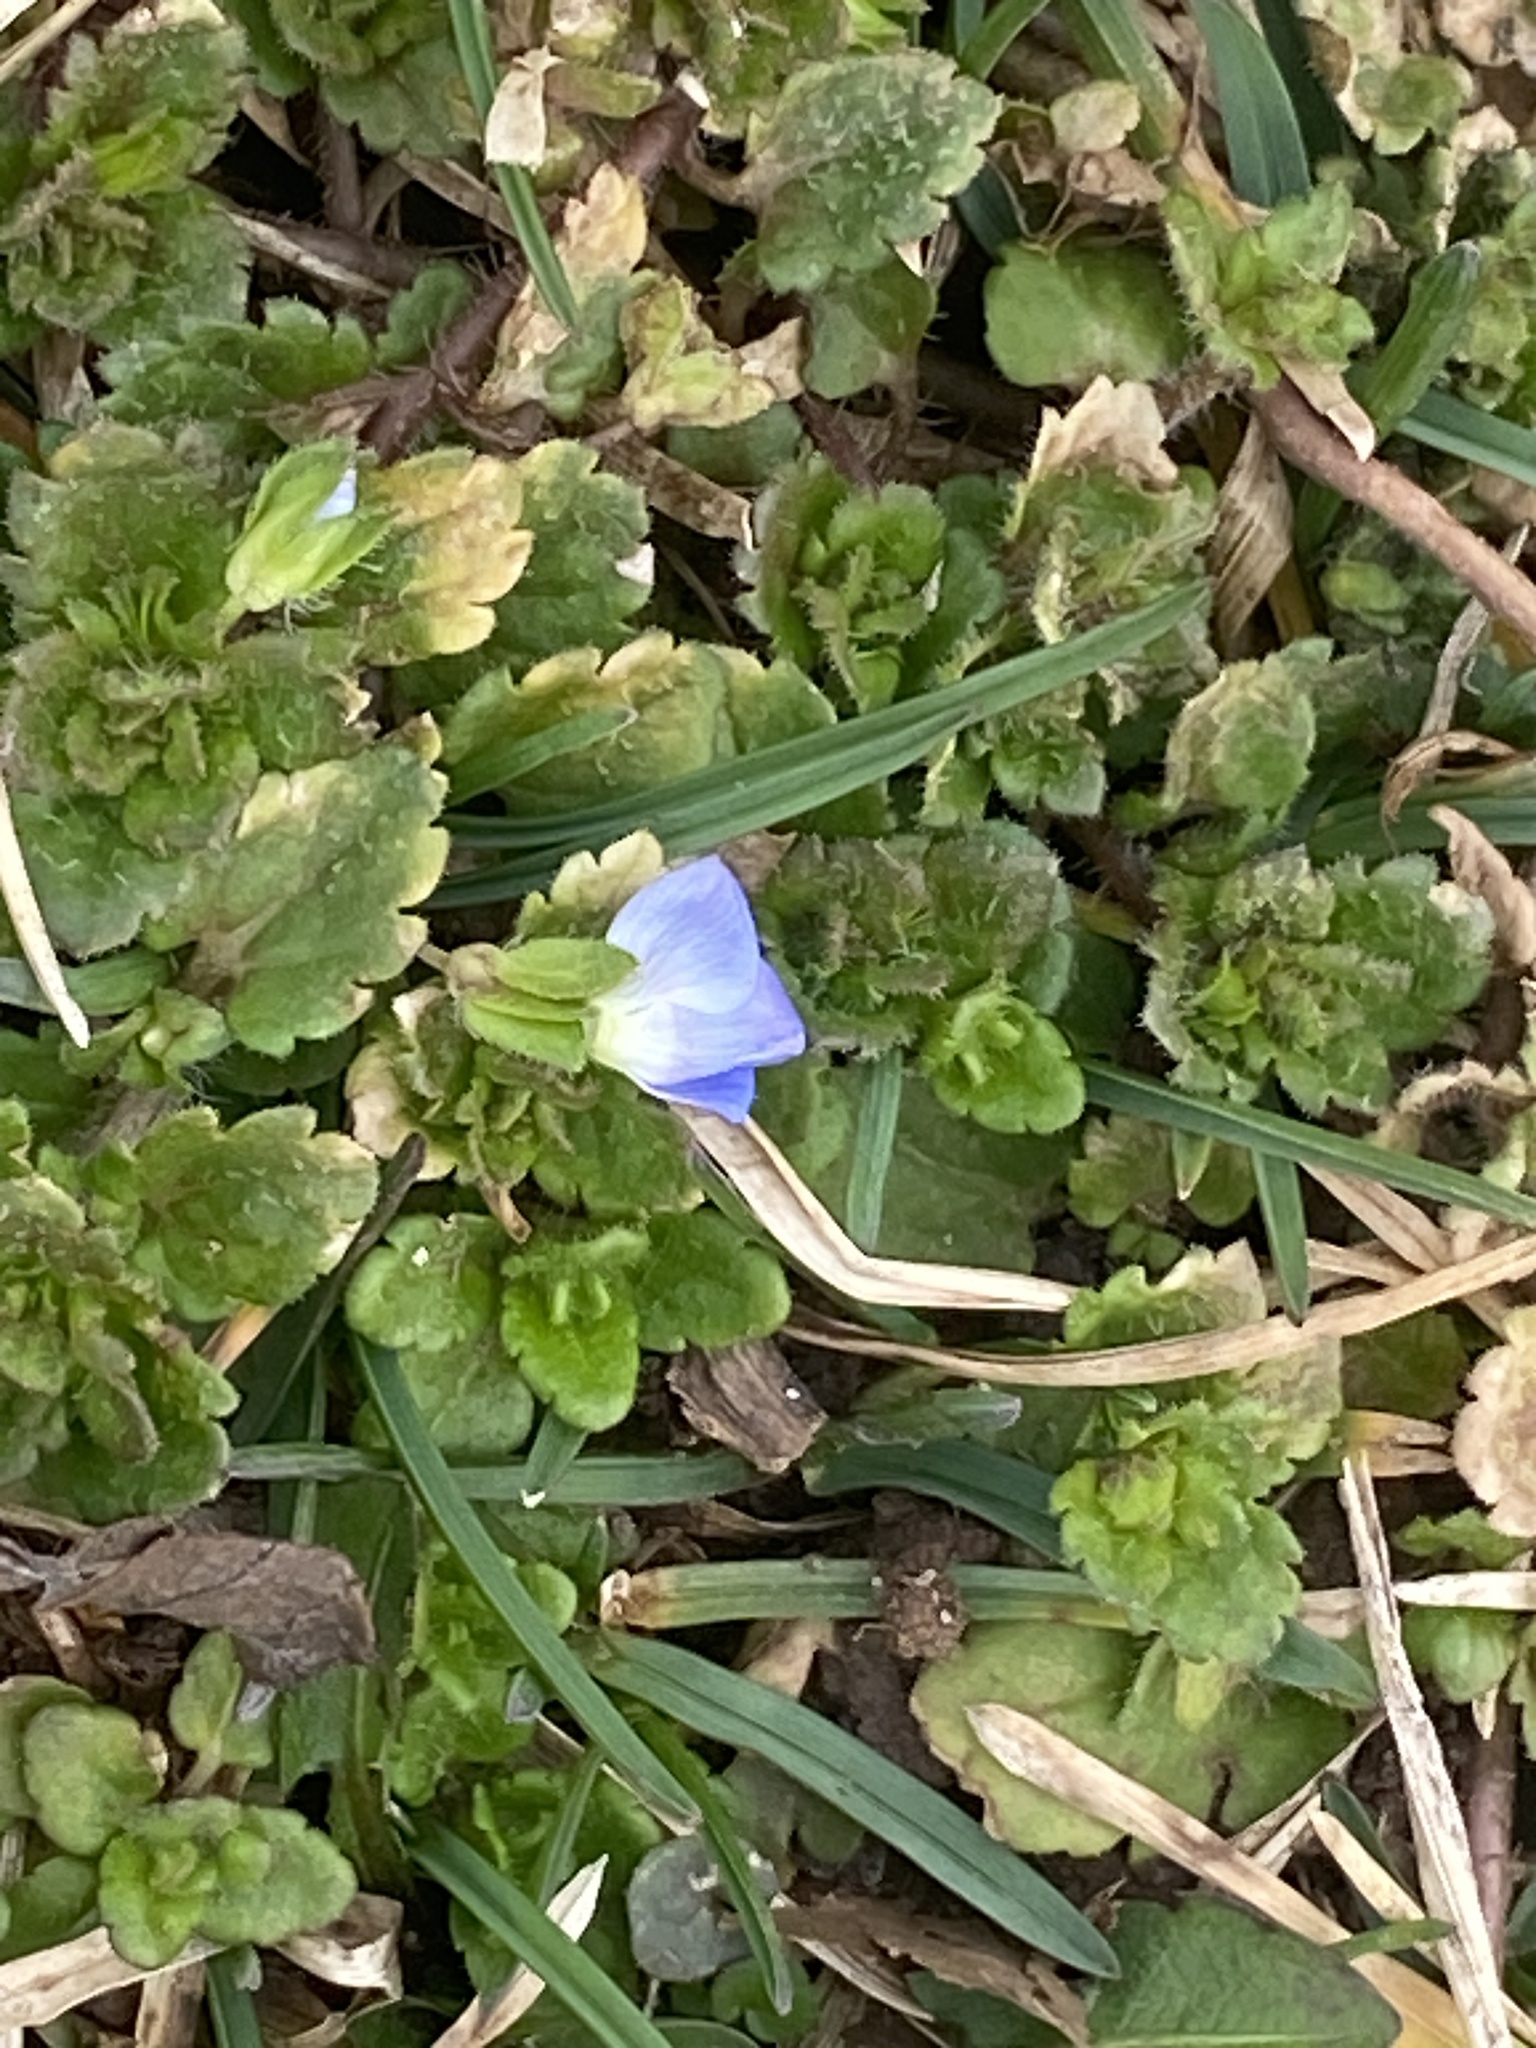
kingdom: Plantae
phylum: Tracheophyta
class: Magnoliopsida
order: Lamiales
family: Plantaginaceae
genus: Veronica
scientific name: Veronica persica
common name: Common field-speedwell
